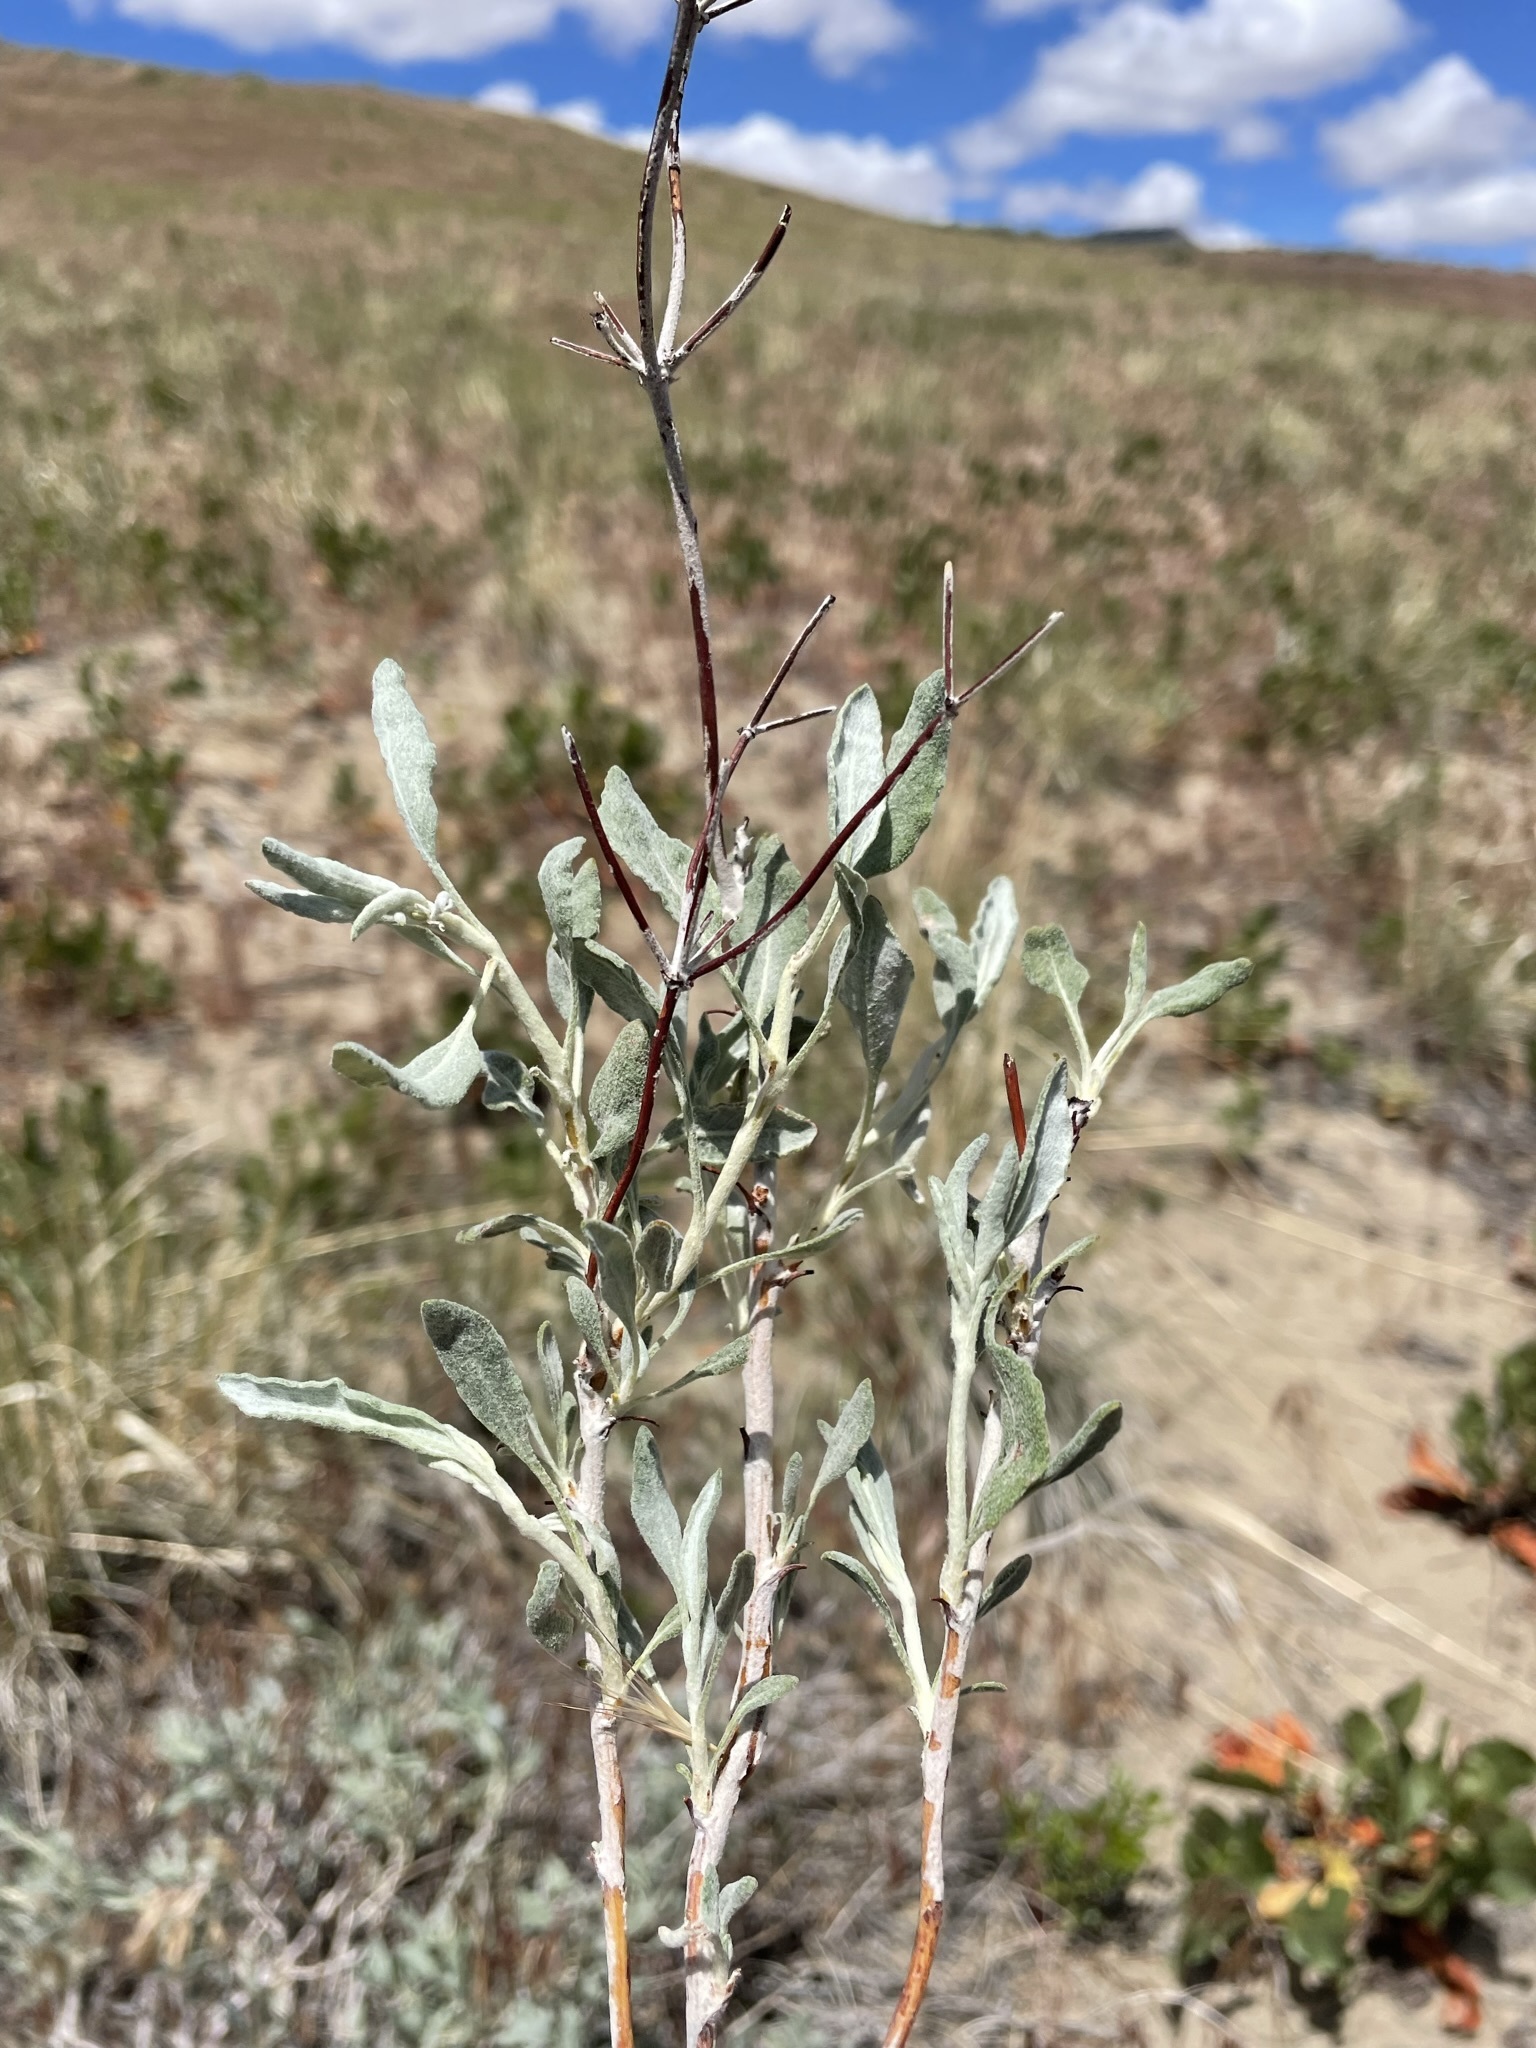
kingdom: Plantae
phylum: Tracheophyta
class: Magnoliopsida
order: Caryophyllales
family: Polygonaceae
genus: Eriogonum
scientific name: Eriogonum nummulare
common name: Kearney wild buckwheat
